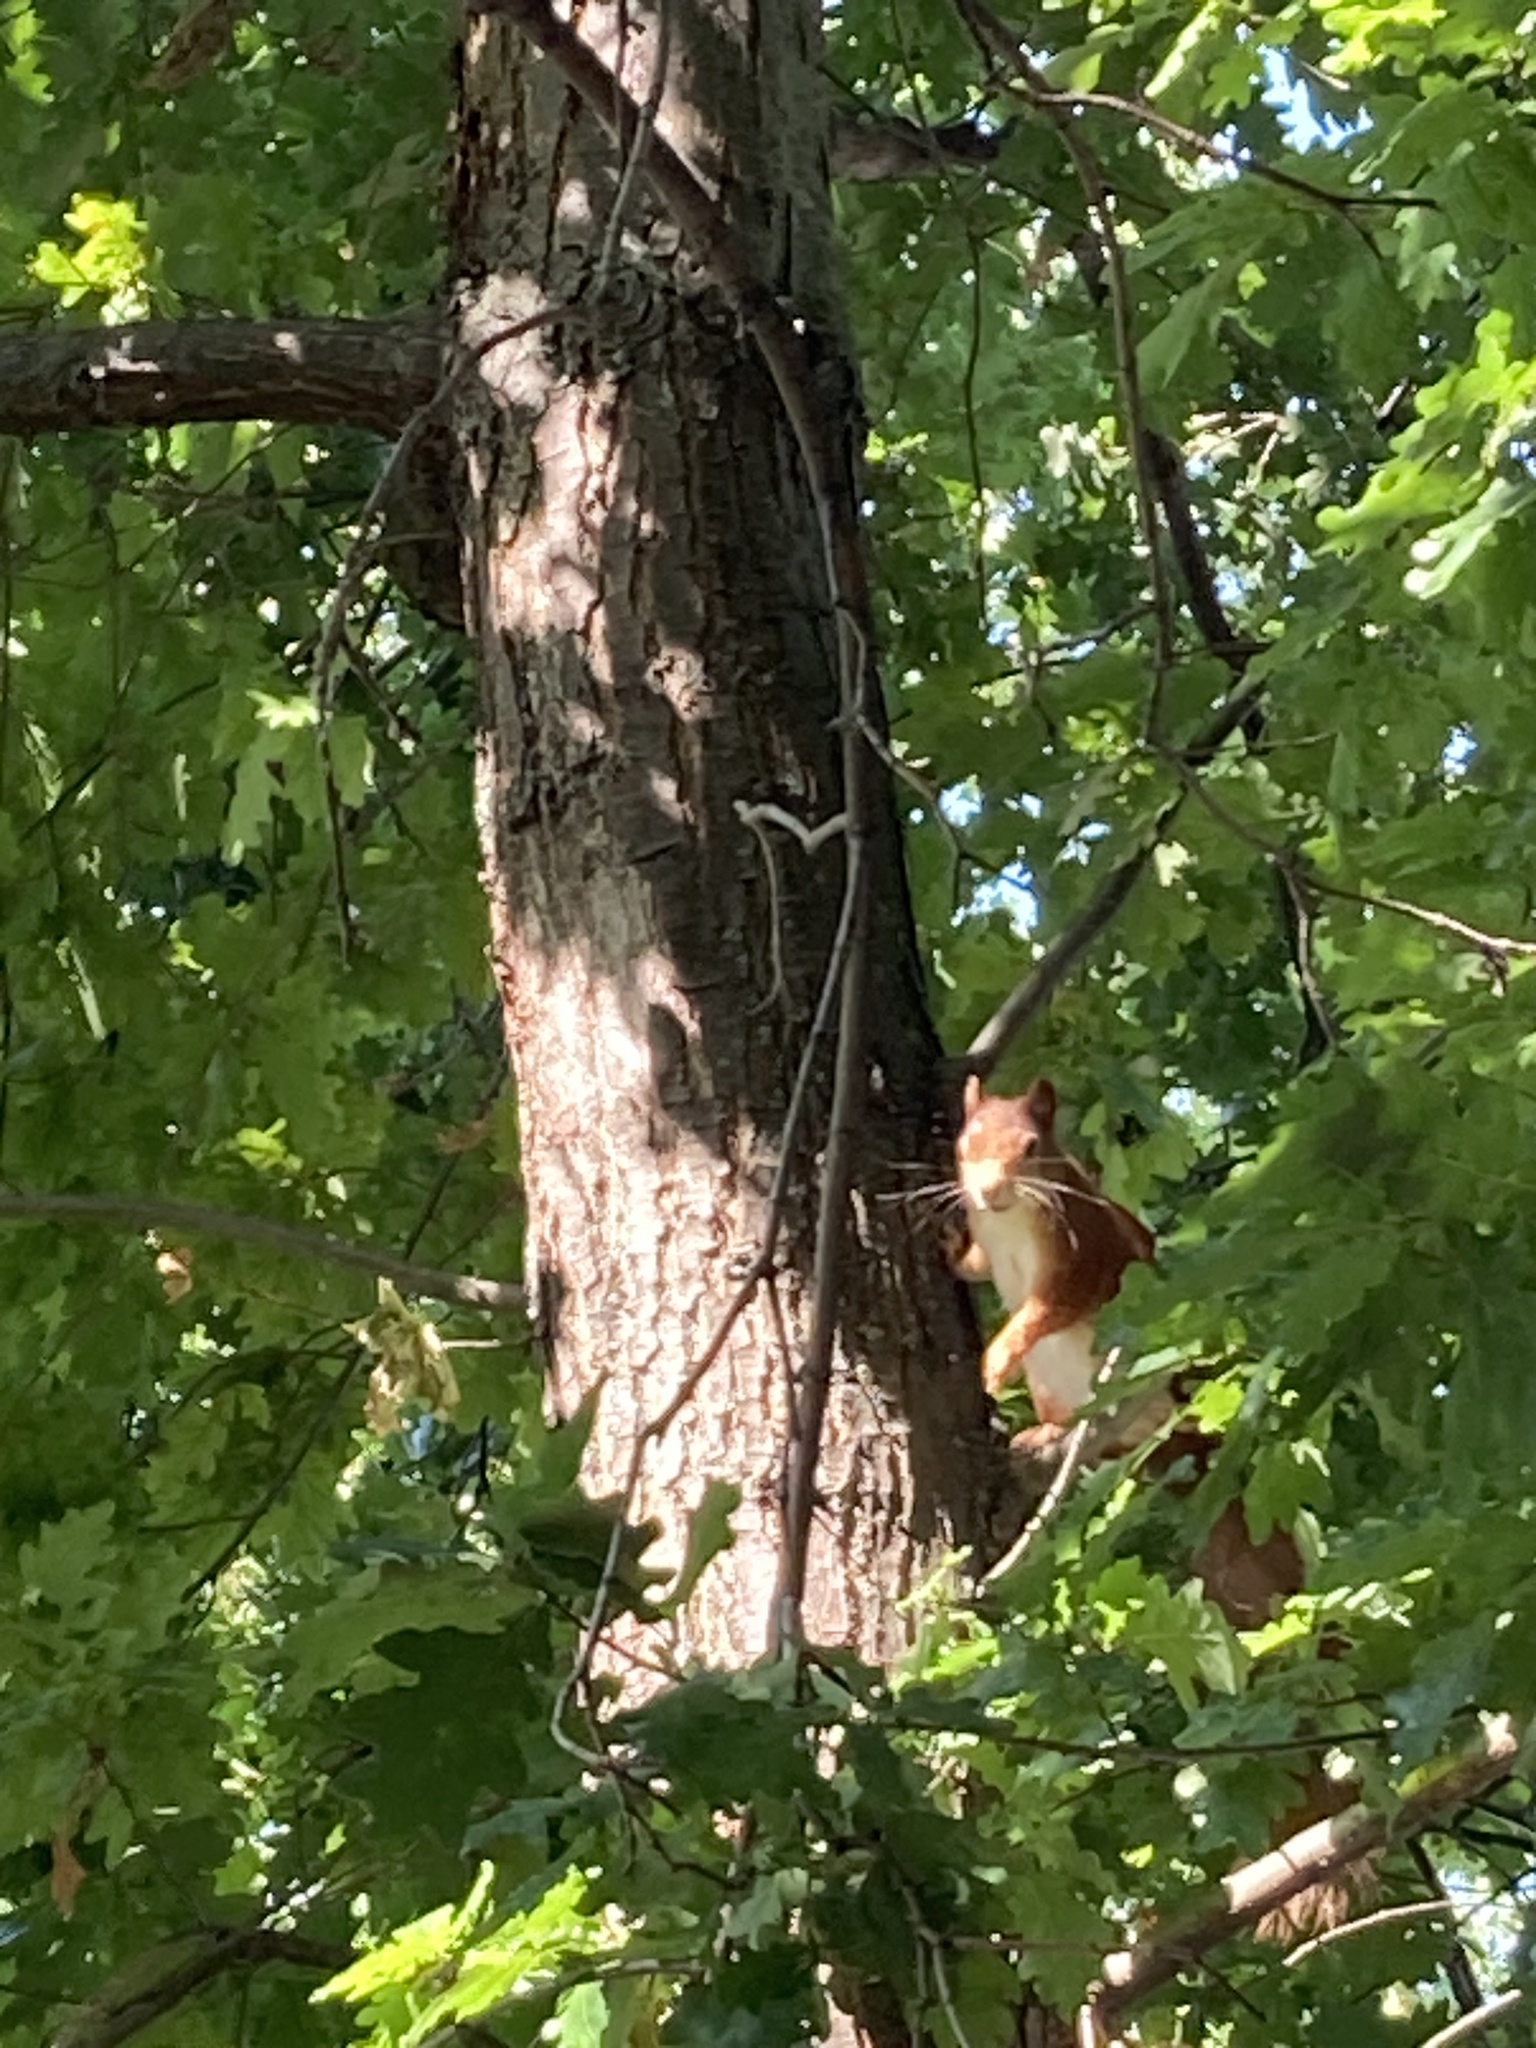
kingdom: Animalia
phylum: Chordata
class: Mammalia
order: Rodentia
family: Sciuridae
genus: Sciurus
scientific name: Sciurus vulgaris
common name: Eurasian red squirrel
